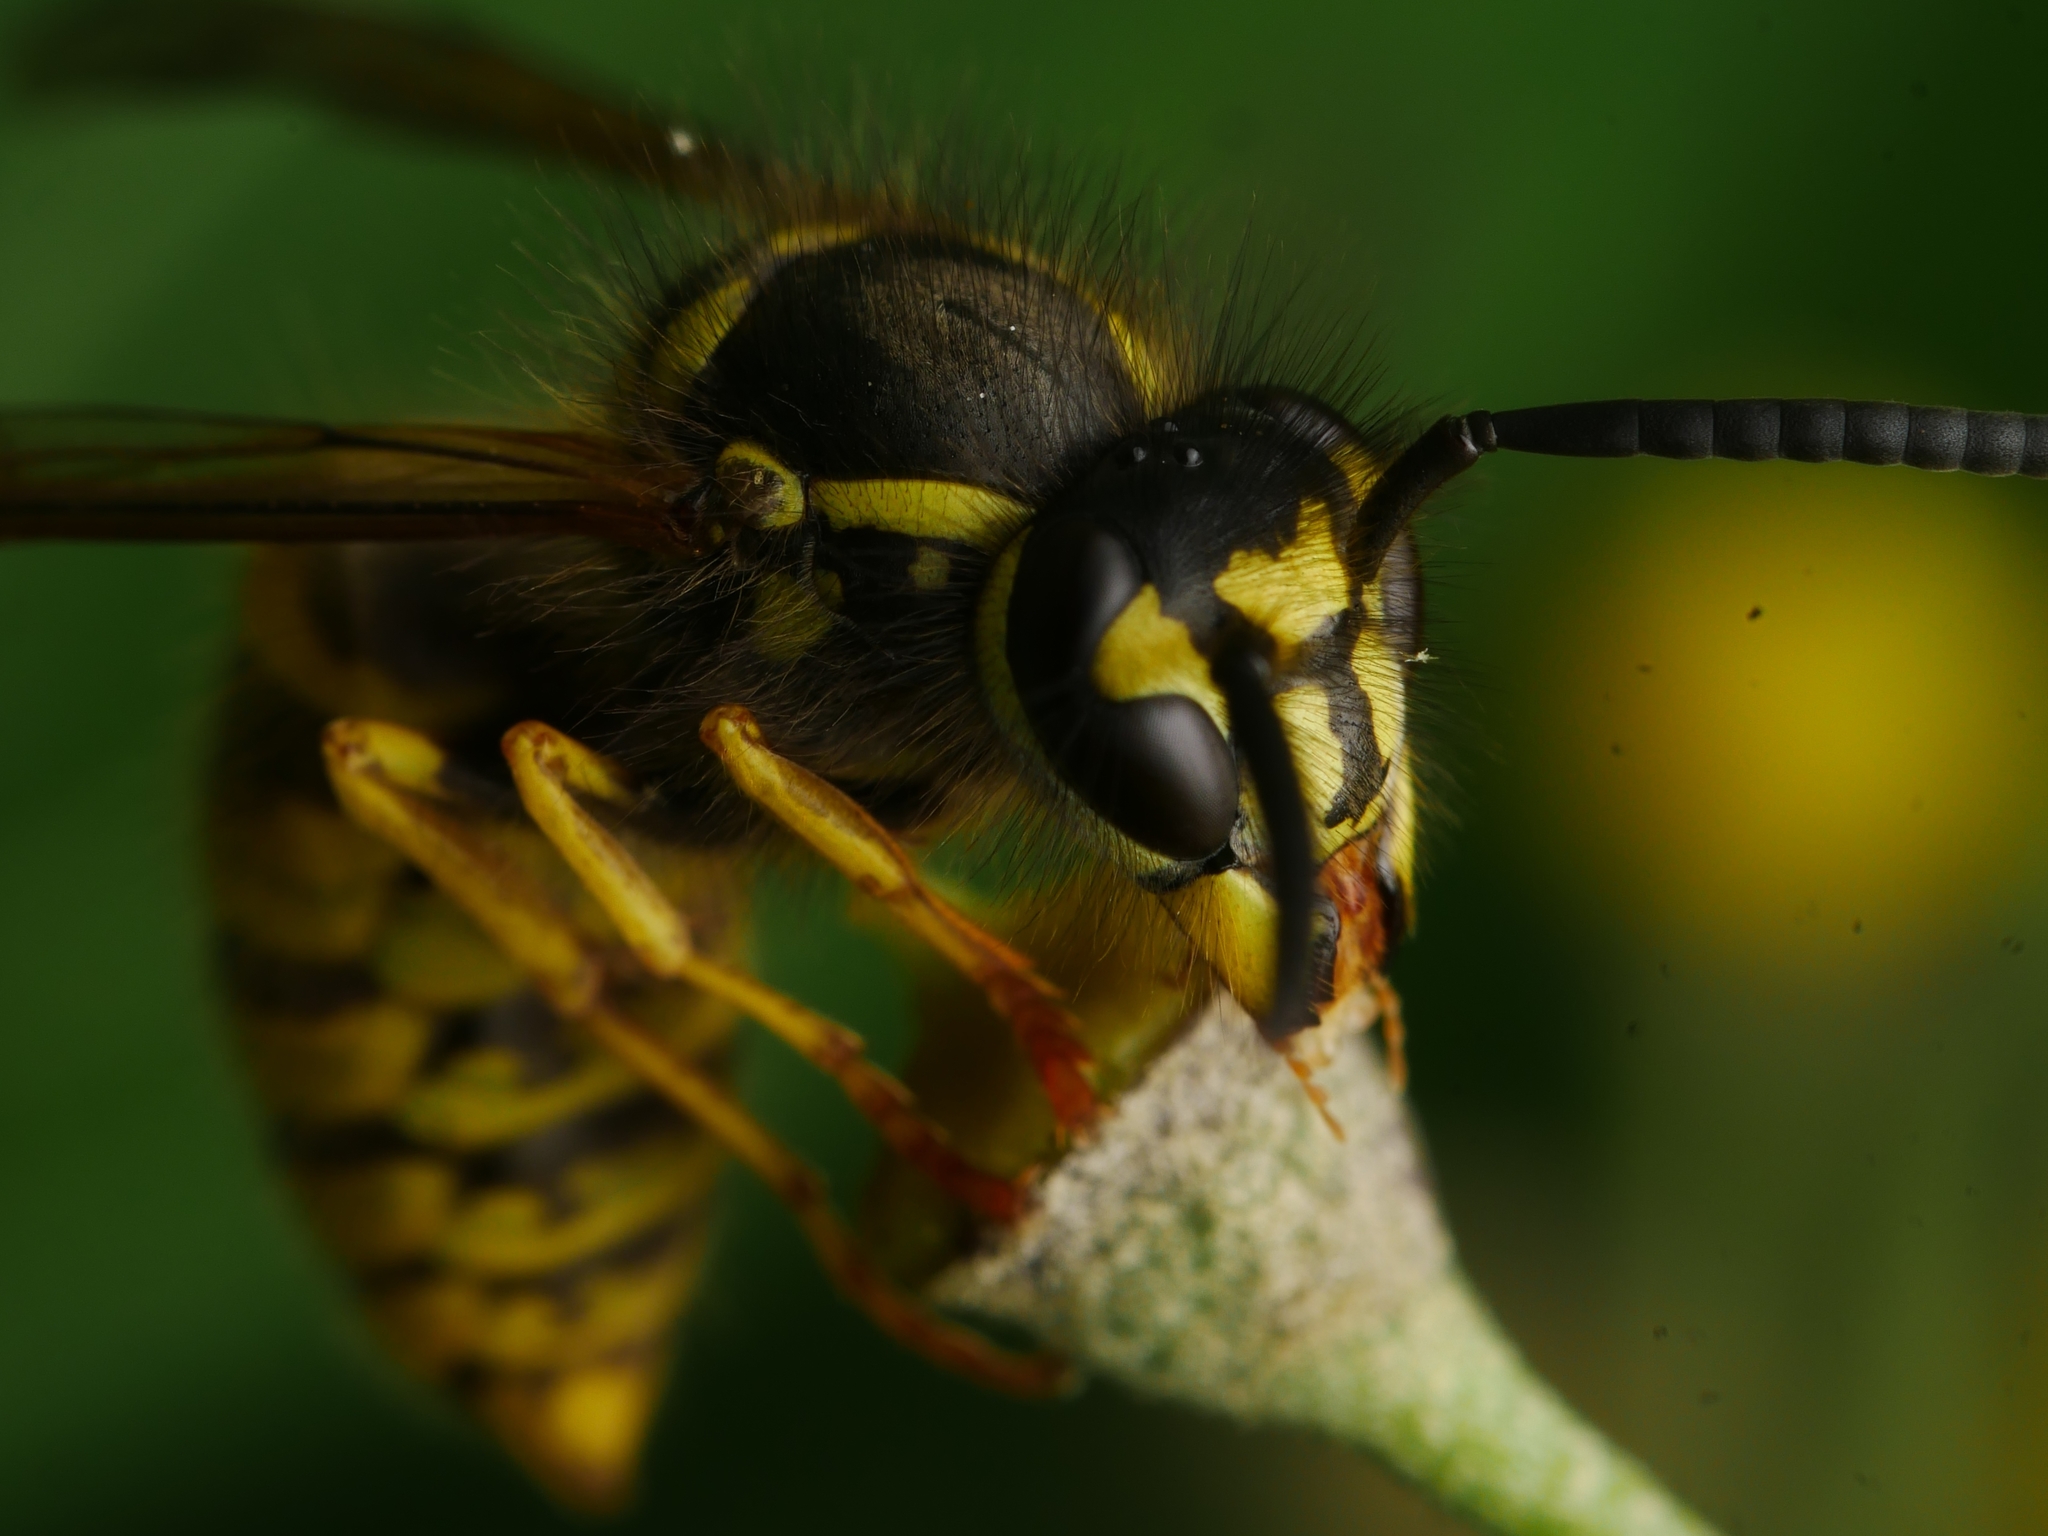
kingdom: Animalia
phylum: Arthropoda
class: Insecta
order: Hymenoptera
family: Vespidae
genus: Vespula
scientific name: Vespula vulgaris
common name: Common wasp
